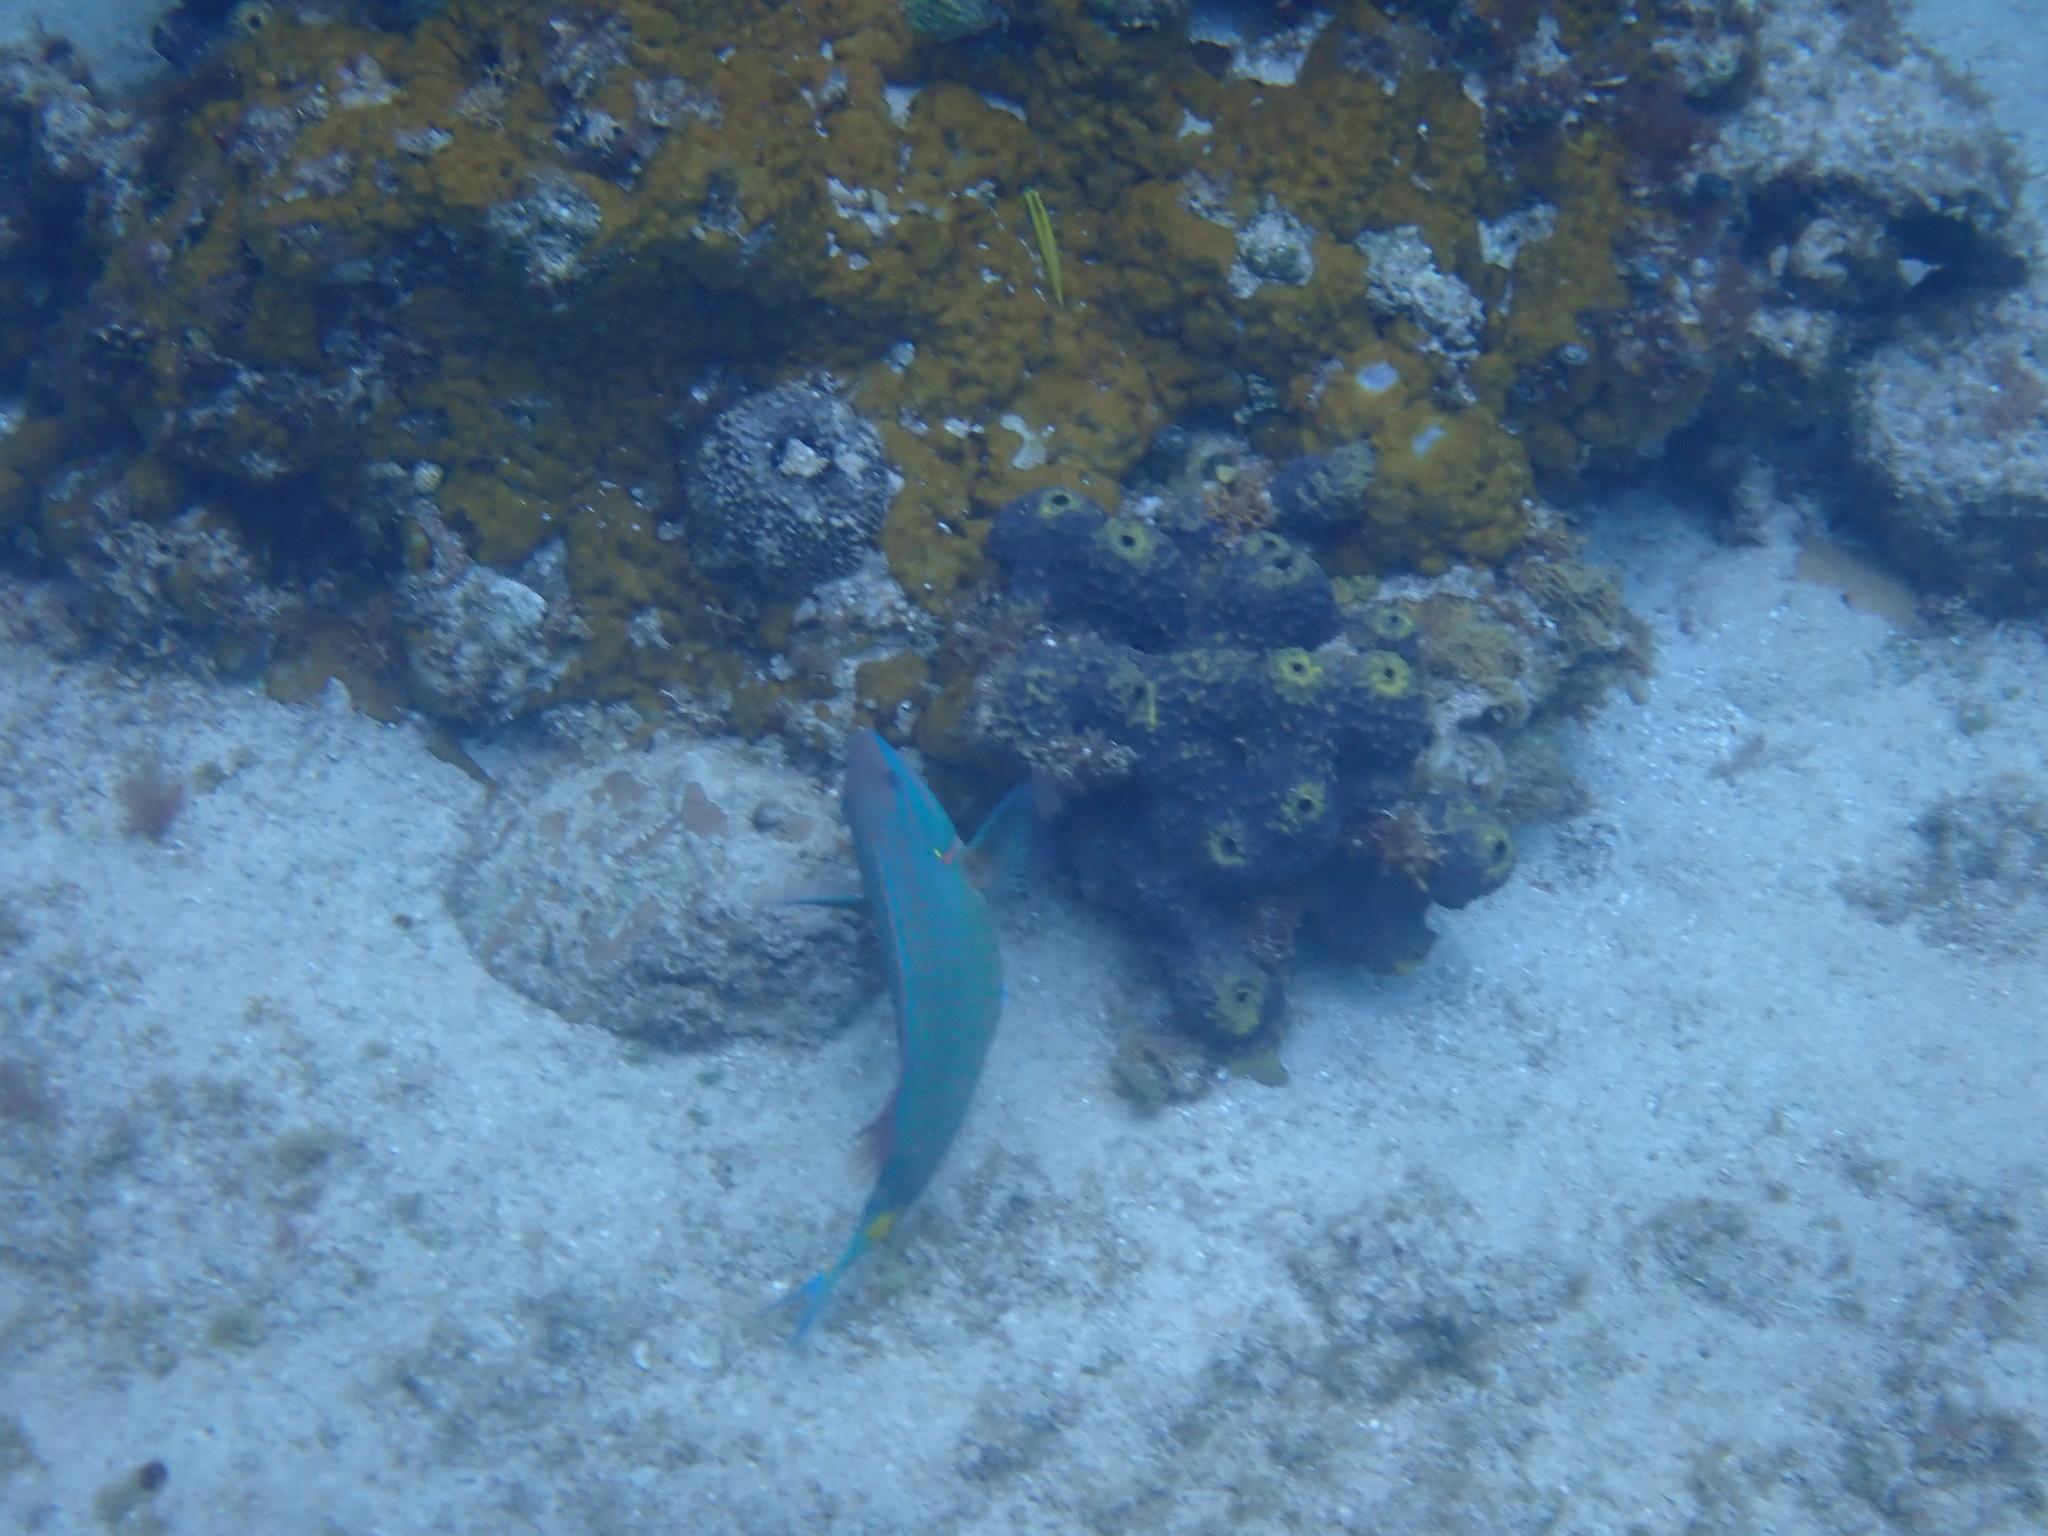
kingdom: Animalia
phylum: Chordata
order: Perciformes
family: Scaridae
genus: Sparisoma
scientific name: Sparisoma viride
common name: Stoplight parrotfish
